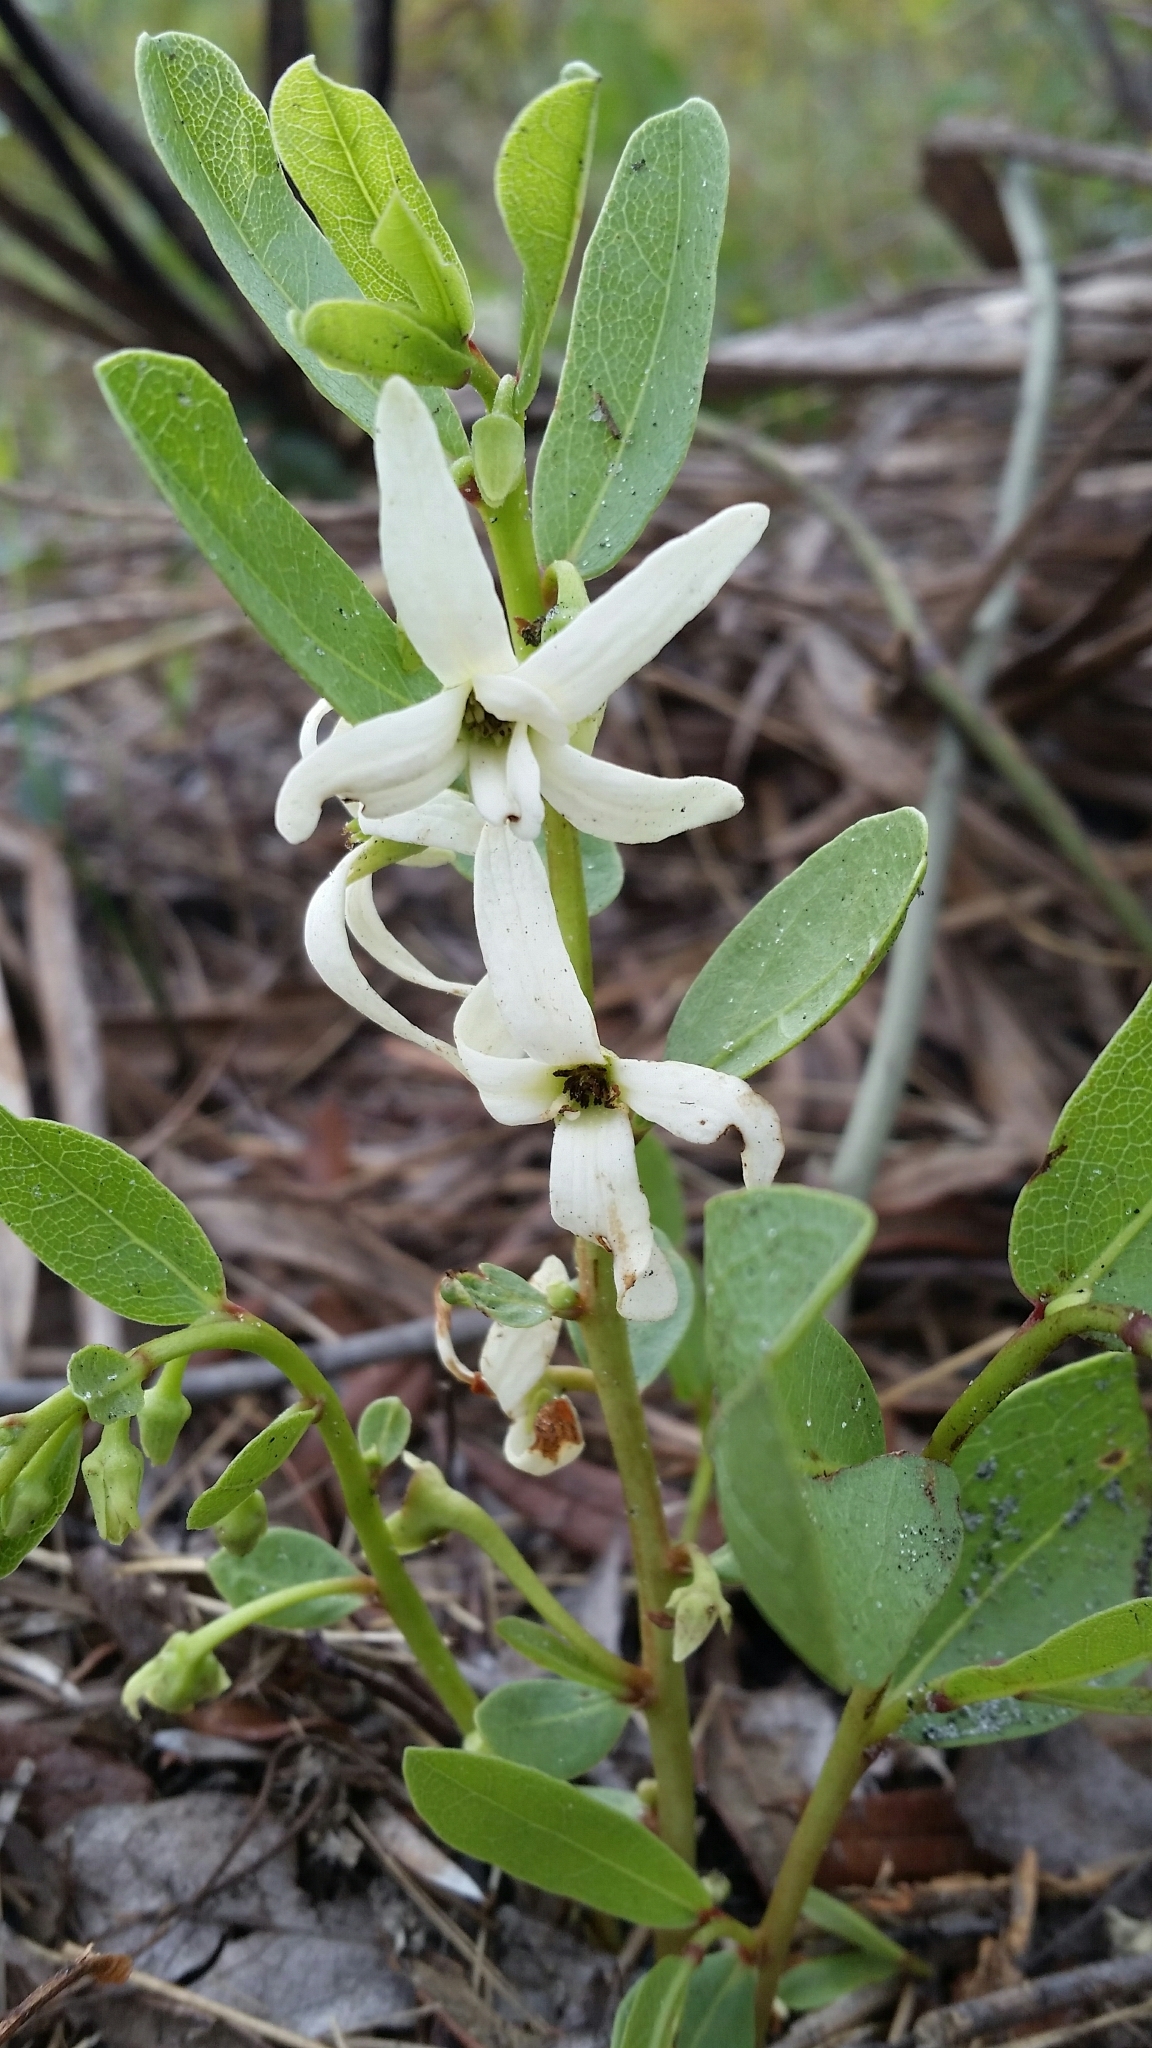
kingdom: Plantae
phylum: Tracheophyta
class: Magnoliopsida
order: Magnoliales
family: Annonaceae
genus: Asimina
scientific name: Asimina pulchella
